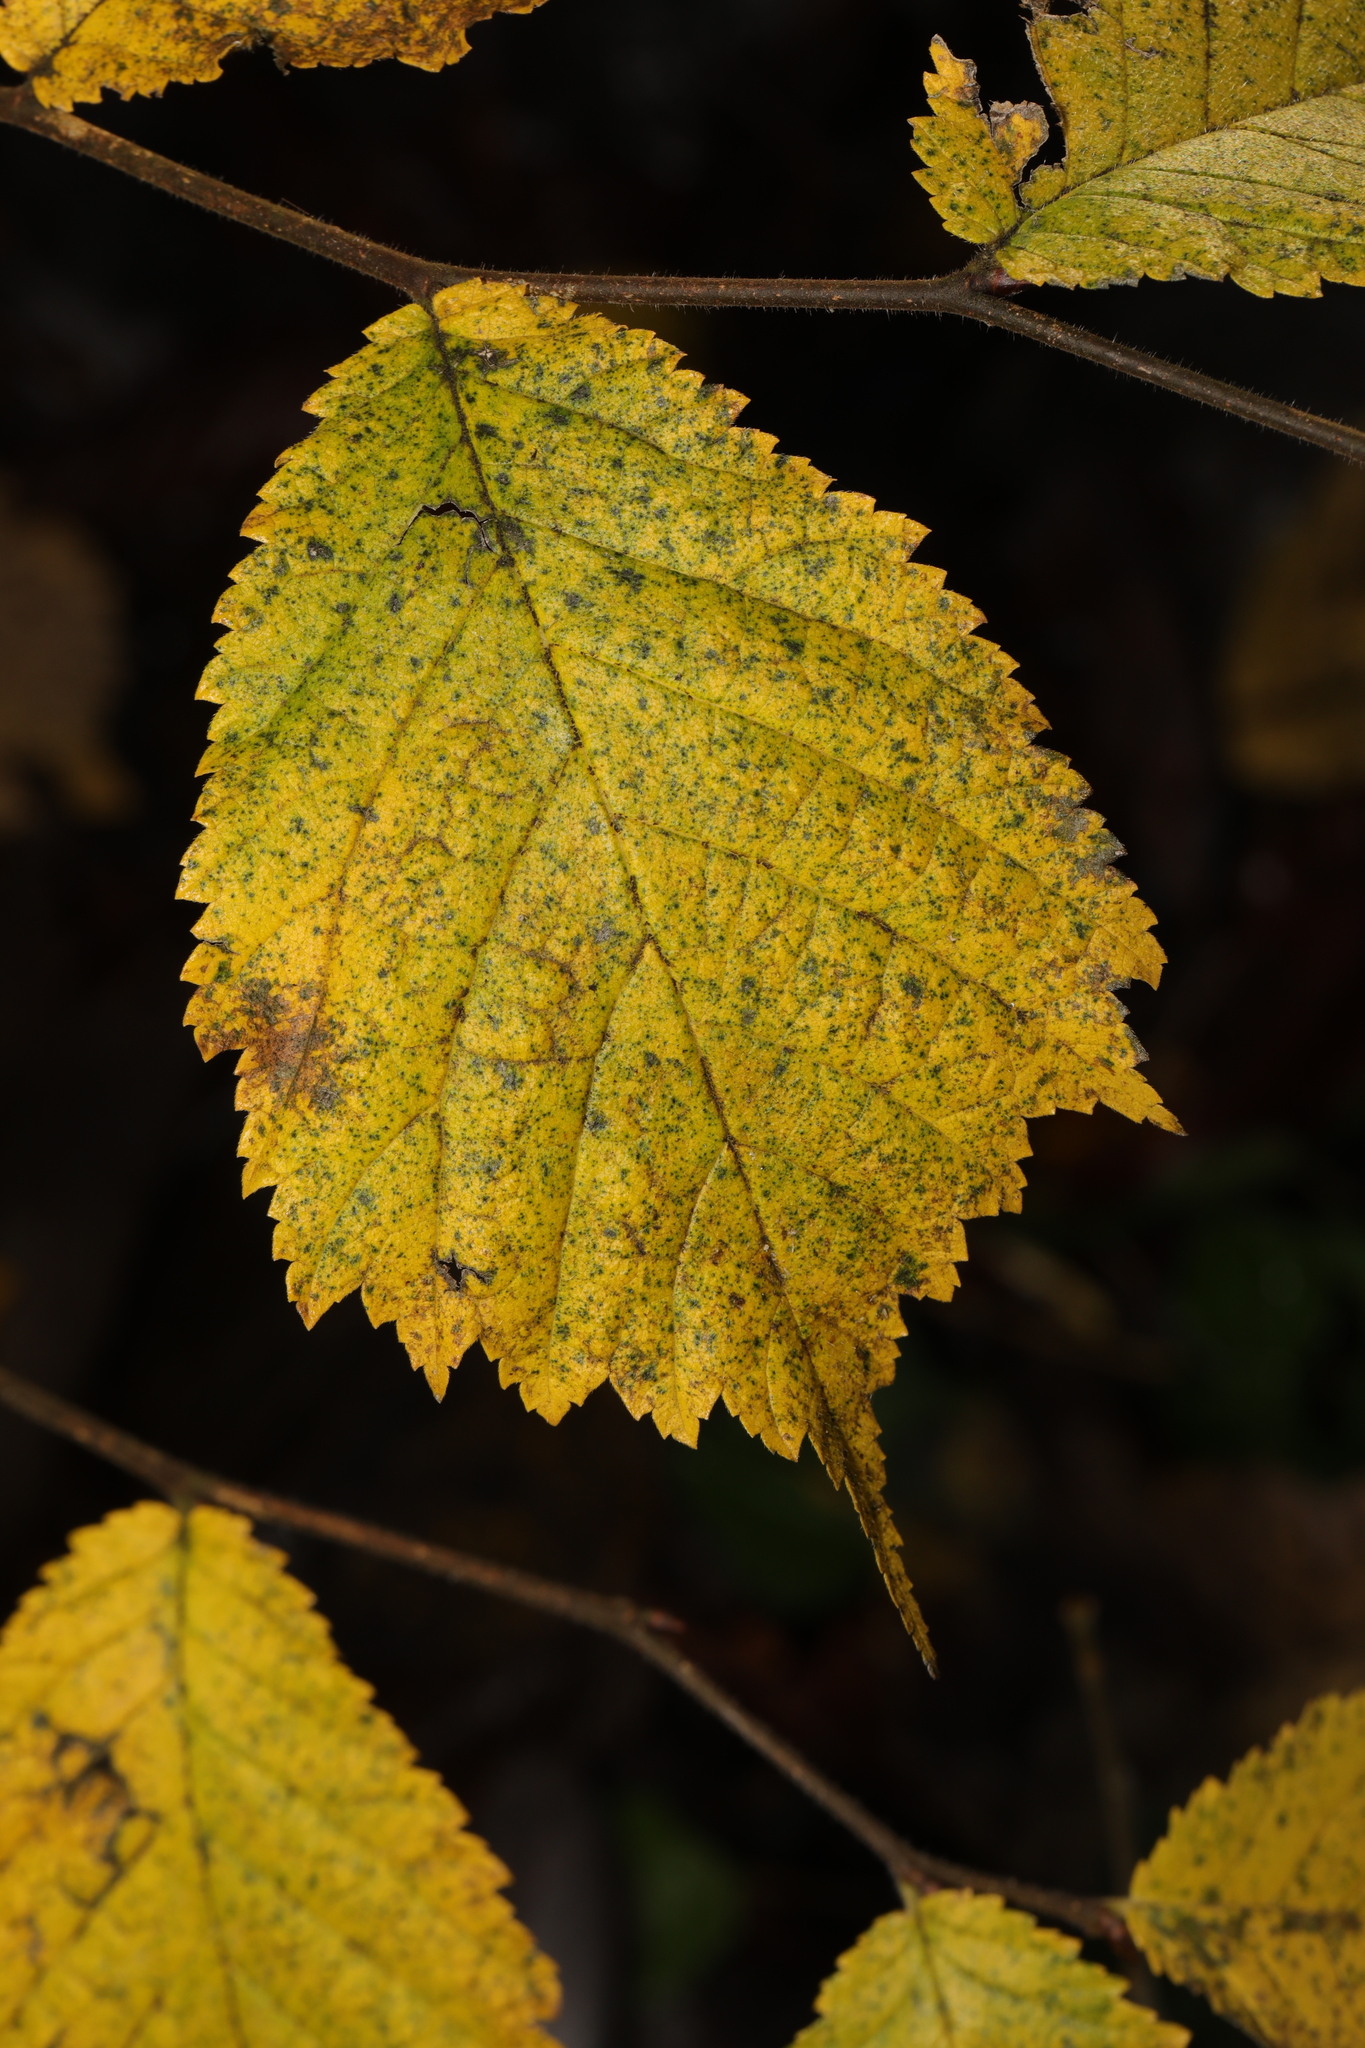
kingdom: Plantae
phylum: Tracheophyta
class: Magnoliopsida
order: Rosales
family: Ulmaceae
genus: Ulmus
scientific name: Ulmus glabra
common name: Wych elm
